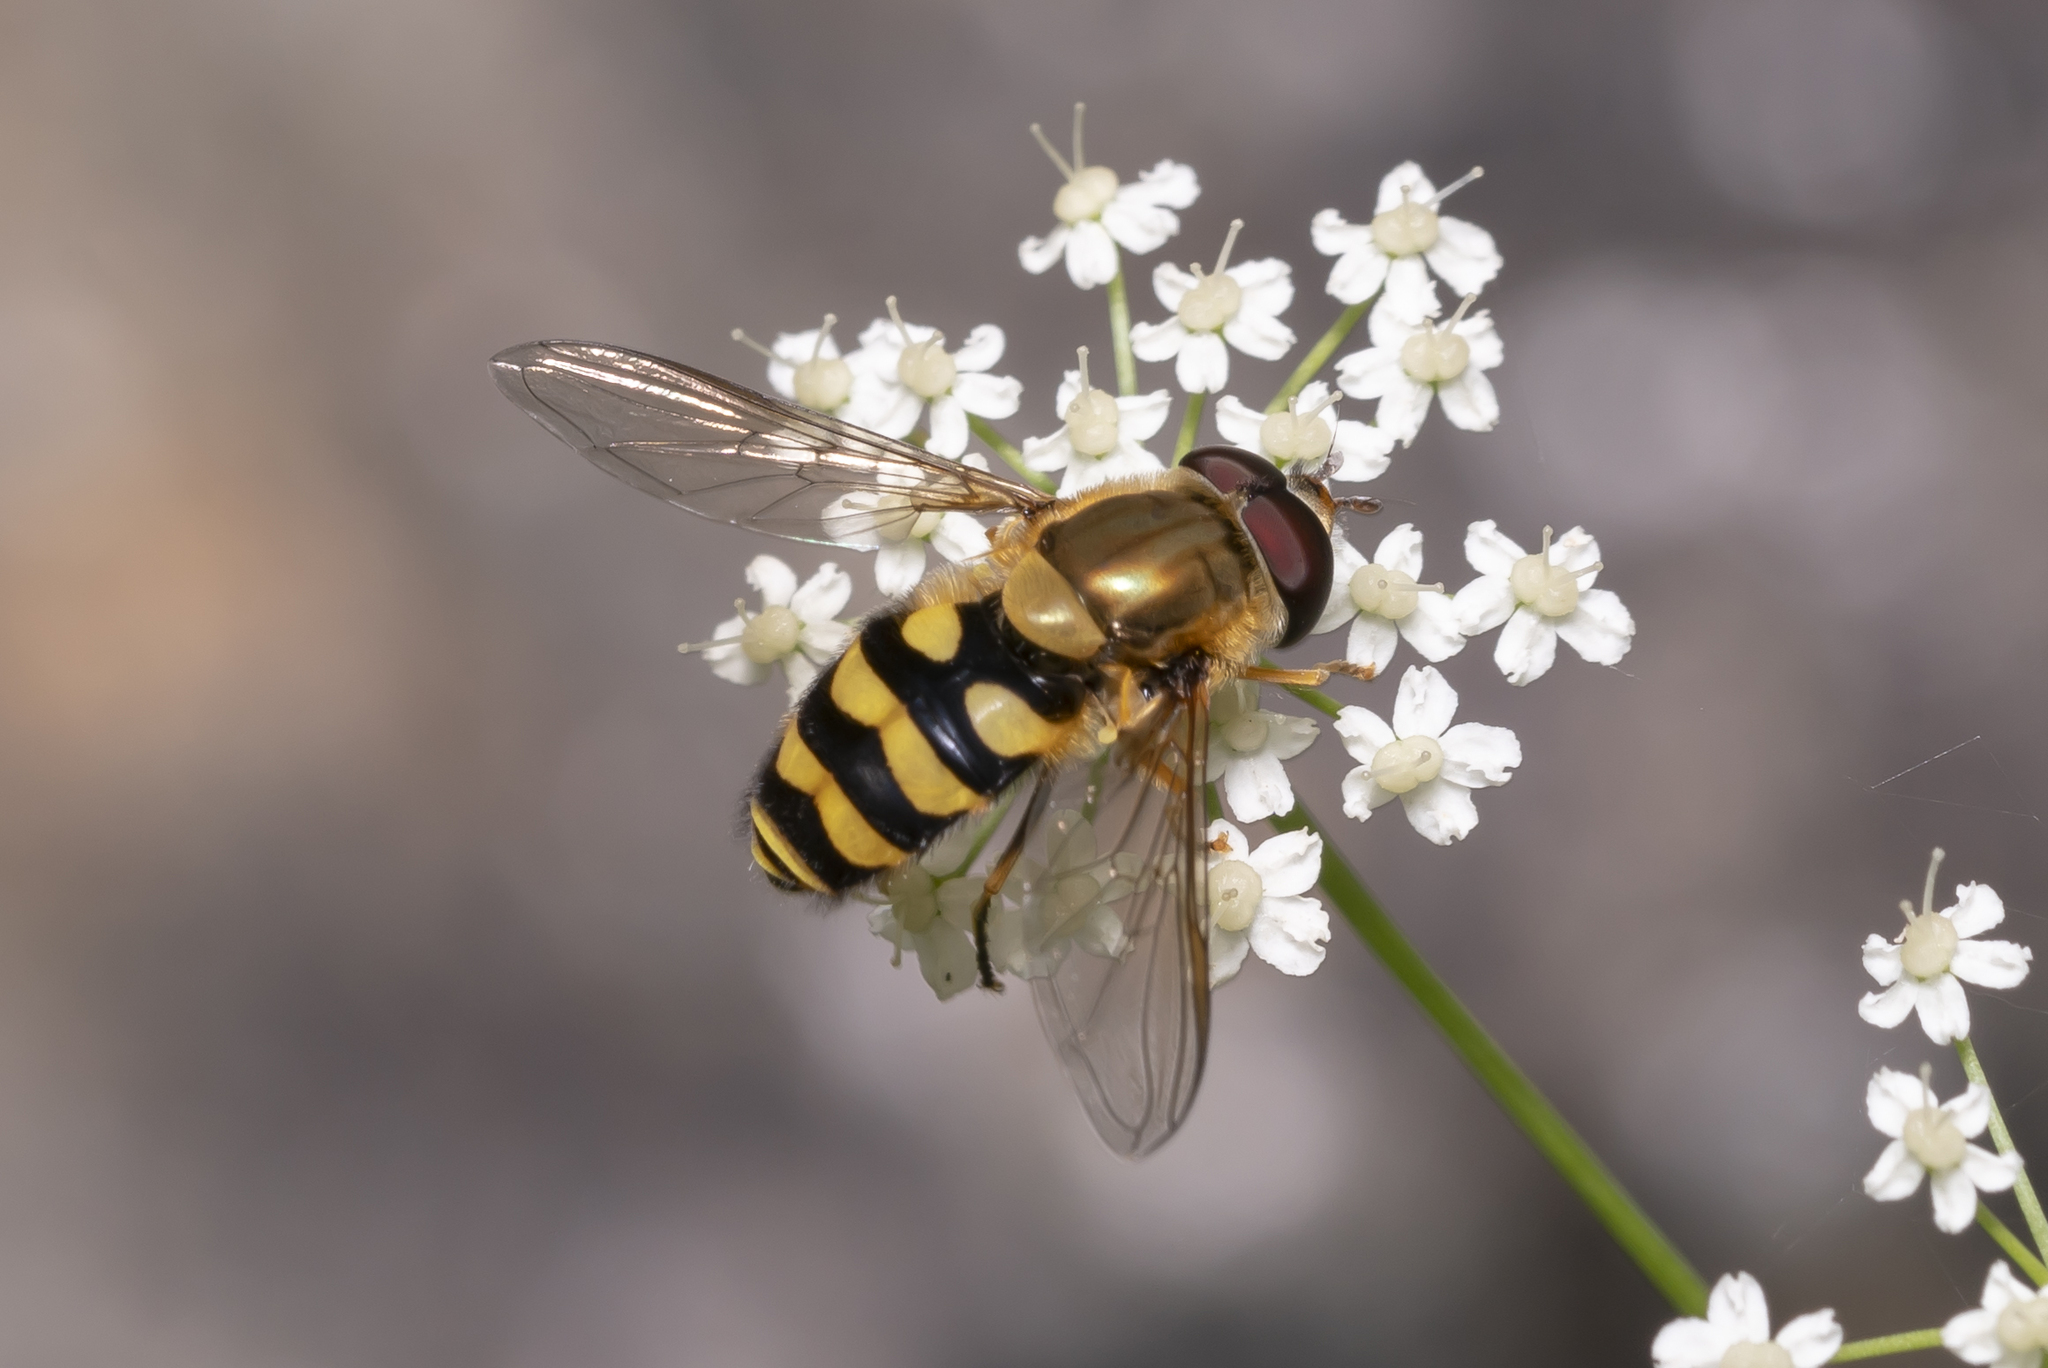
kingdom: Animalia
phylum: Arthropoda
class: Insecta
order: Diptera
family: Syrphidae
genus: Syrphus
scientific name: Syrphus
